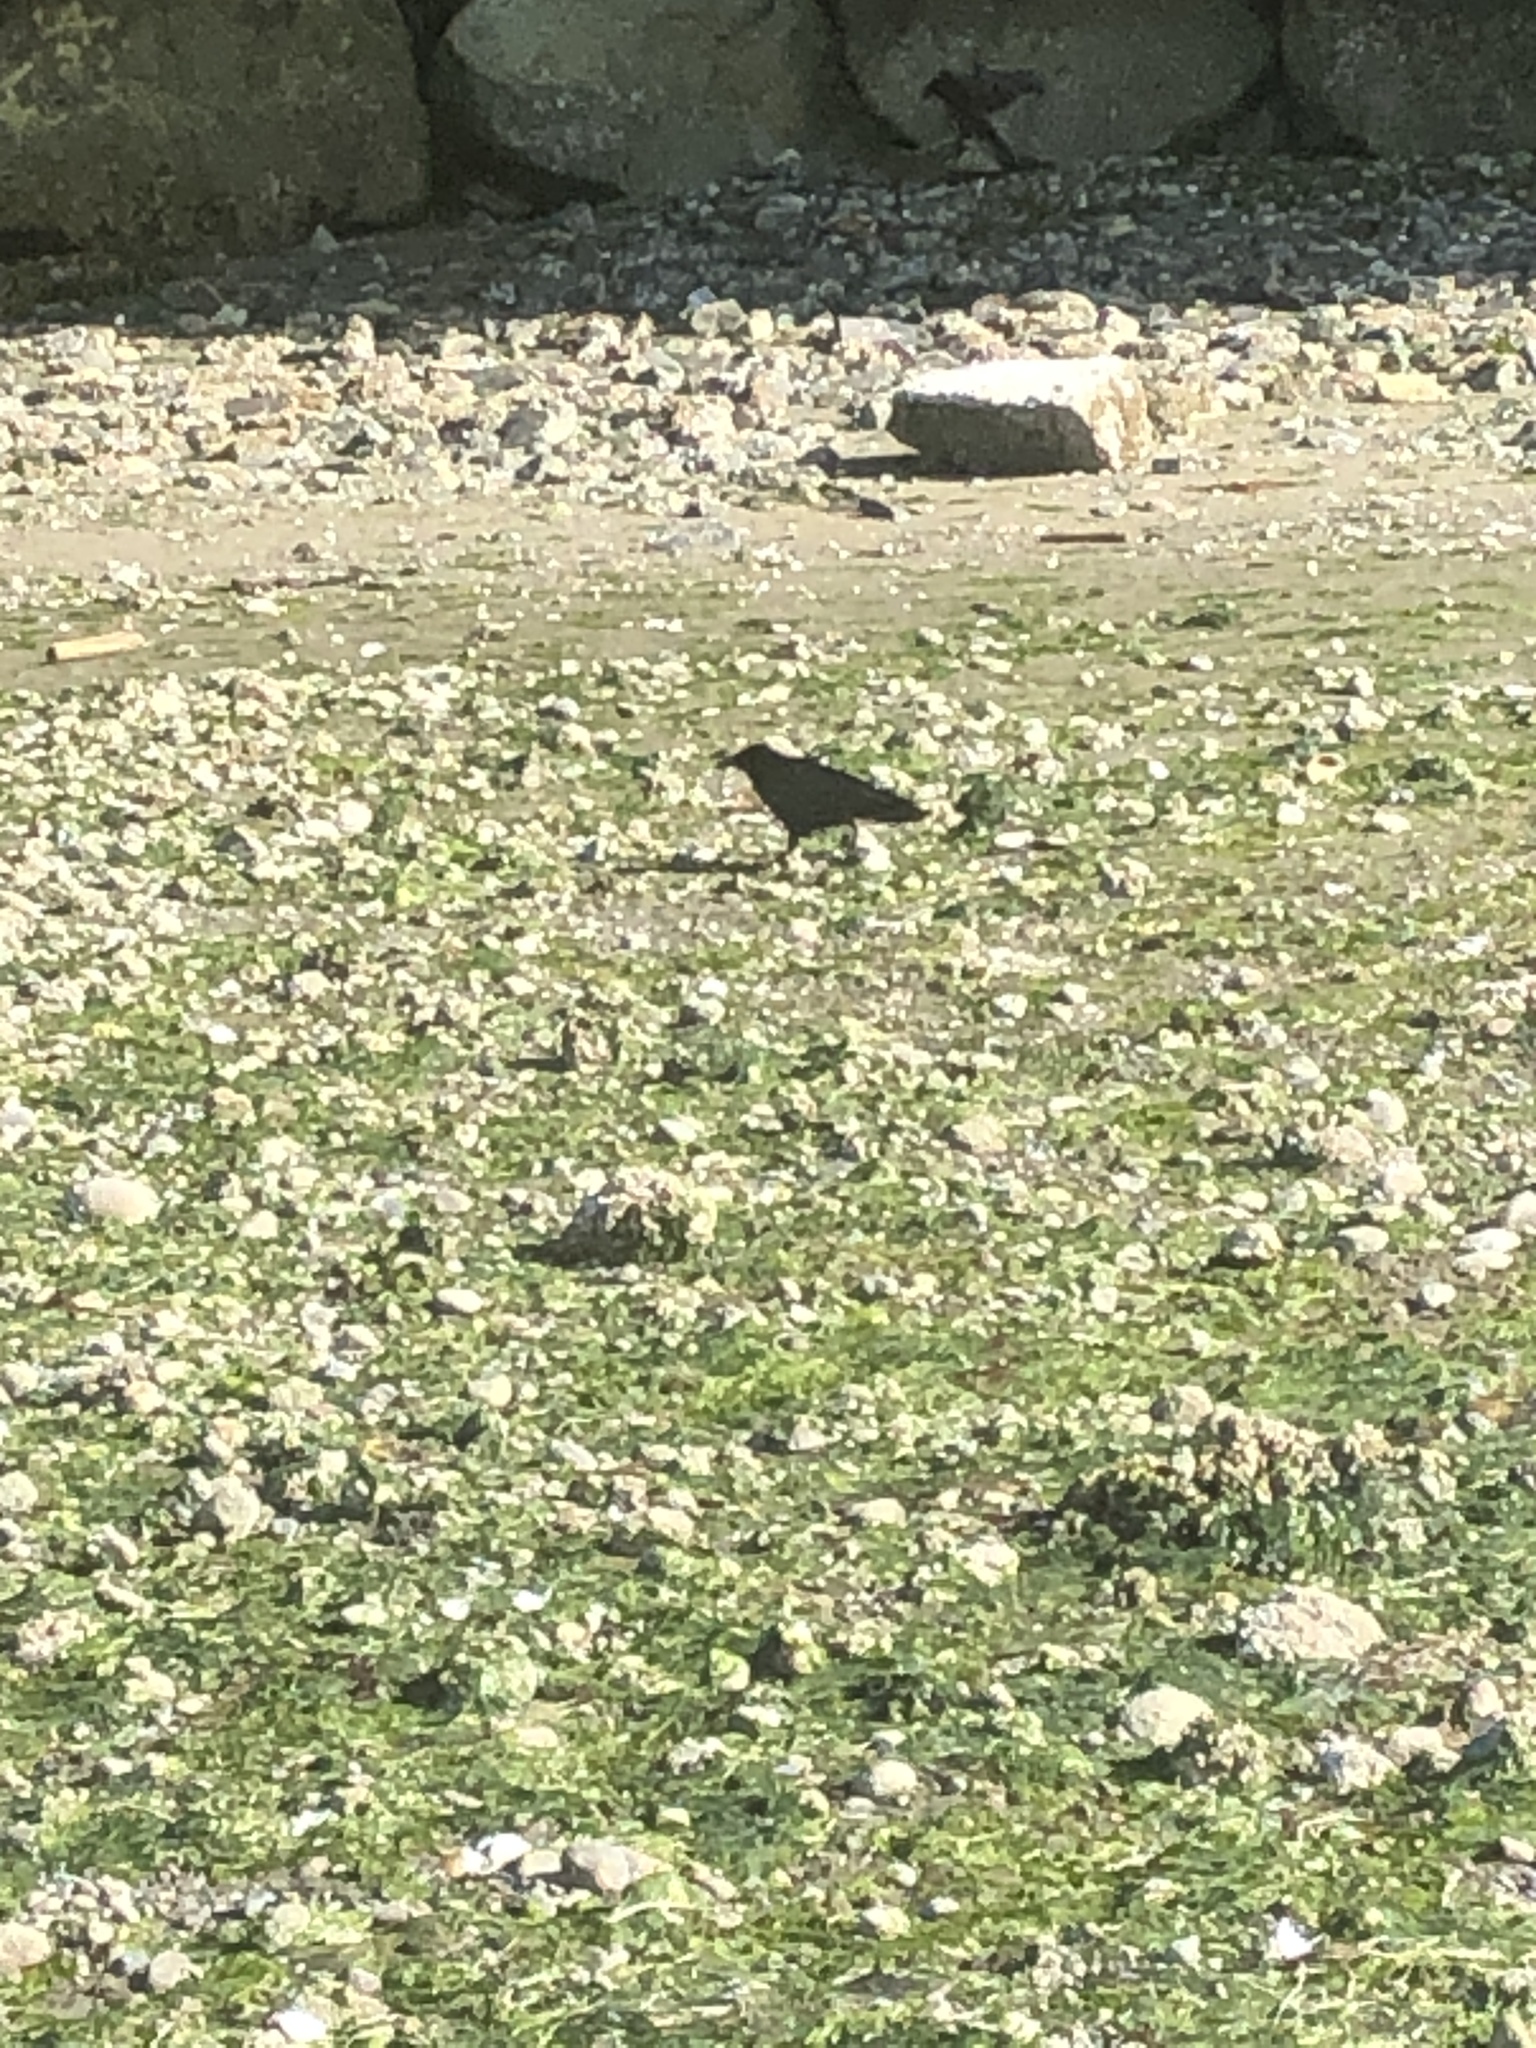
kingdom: Animalia
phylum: Chordata
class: Aves
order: Passeriformes
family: Corvidae
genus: Corvus
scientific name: Corvus brachyrhynchos
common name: American crow
